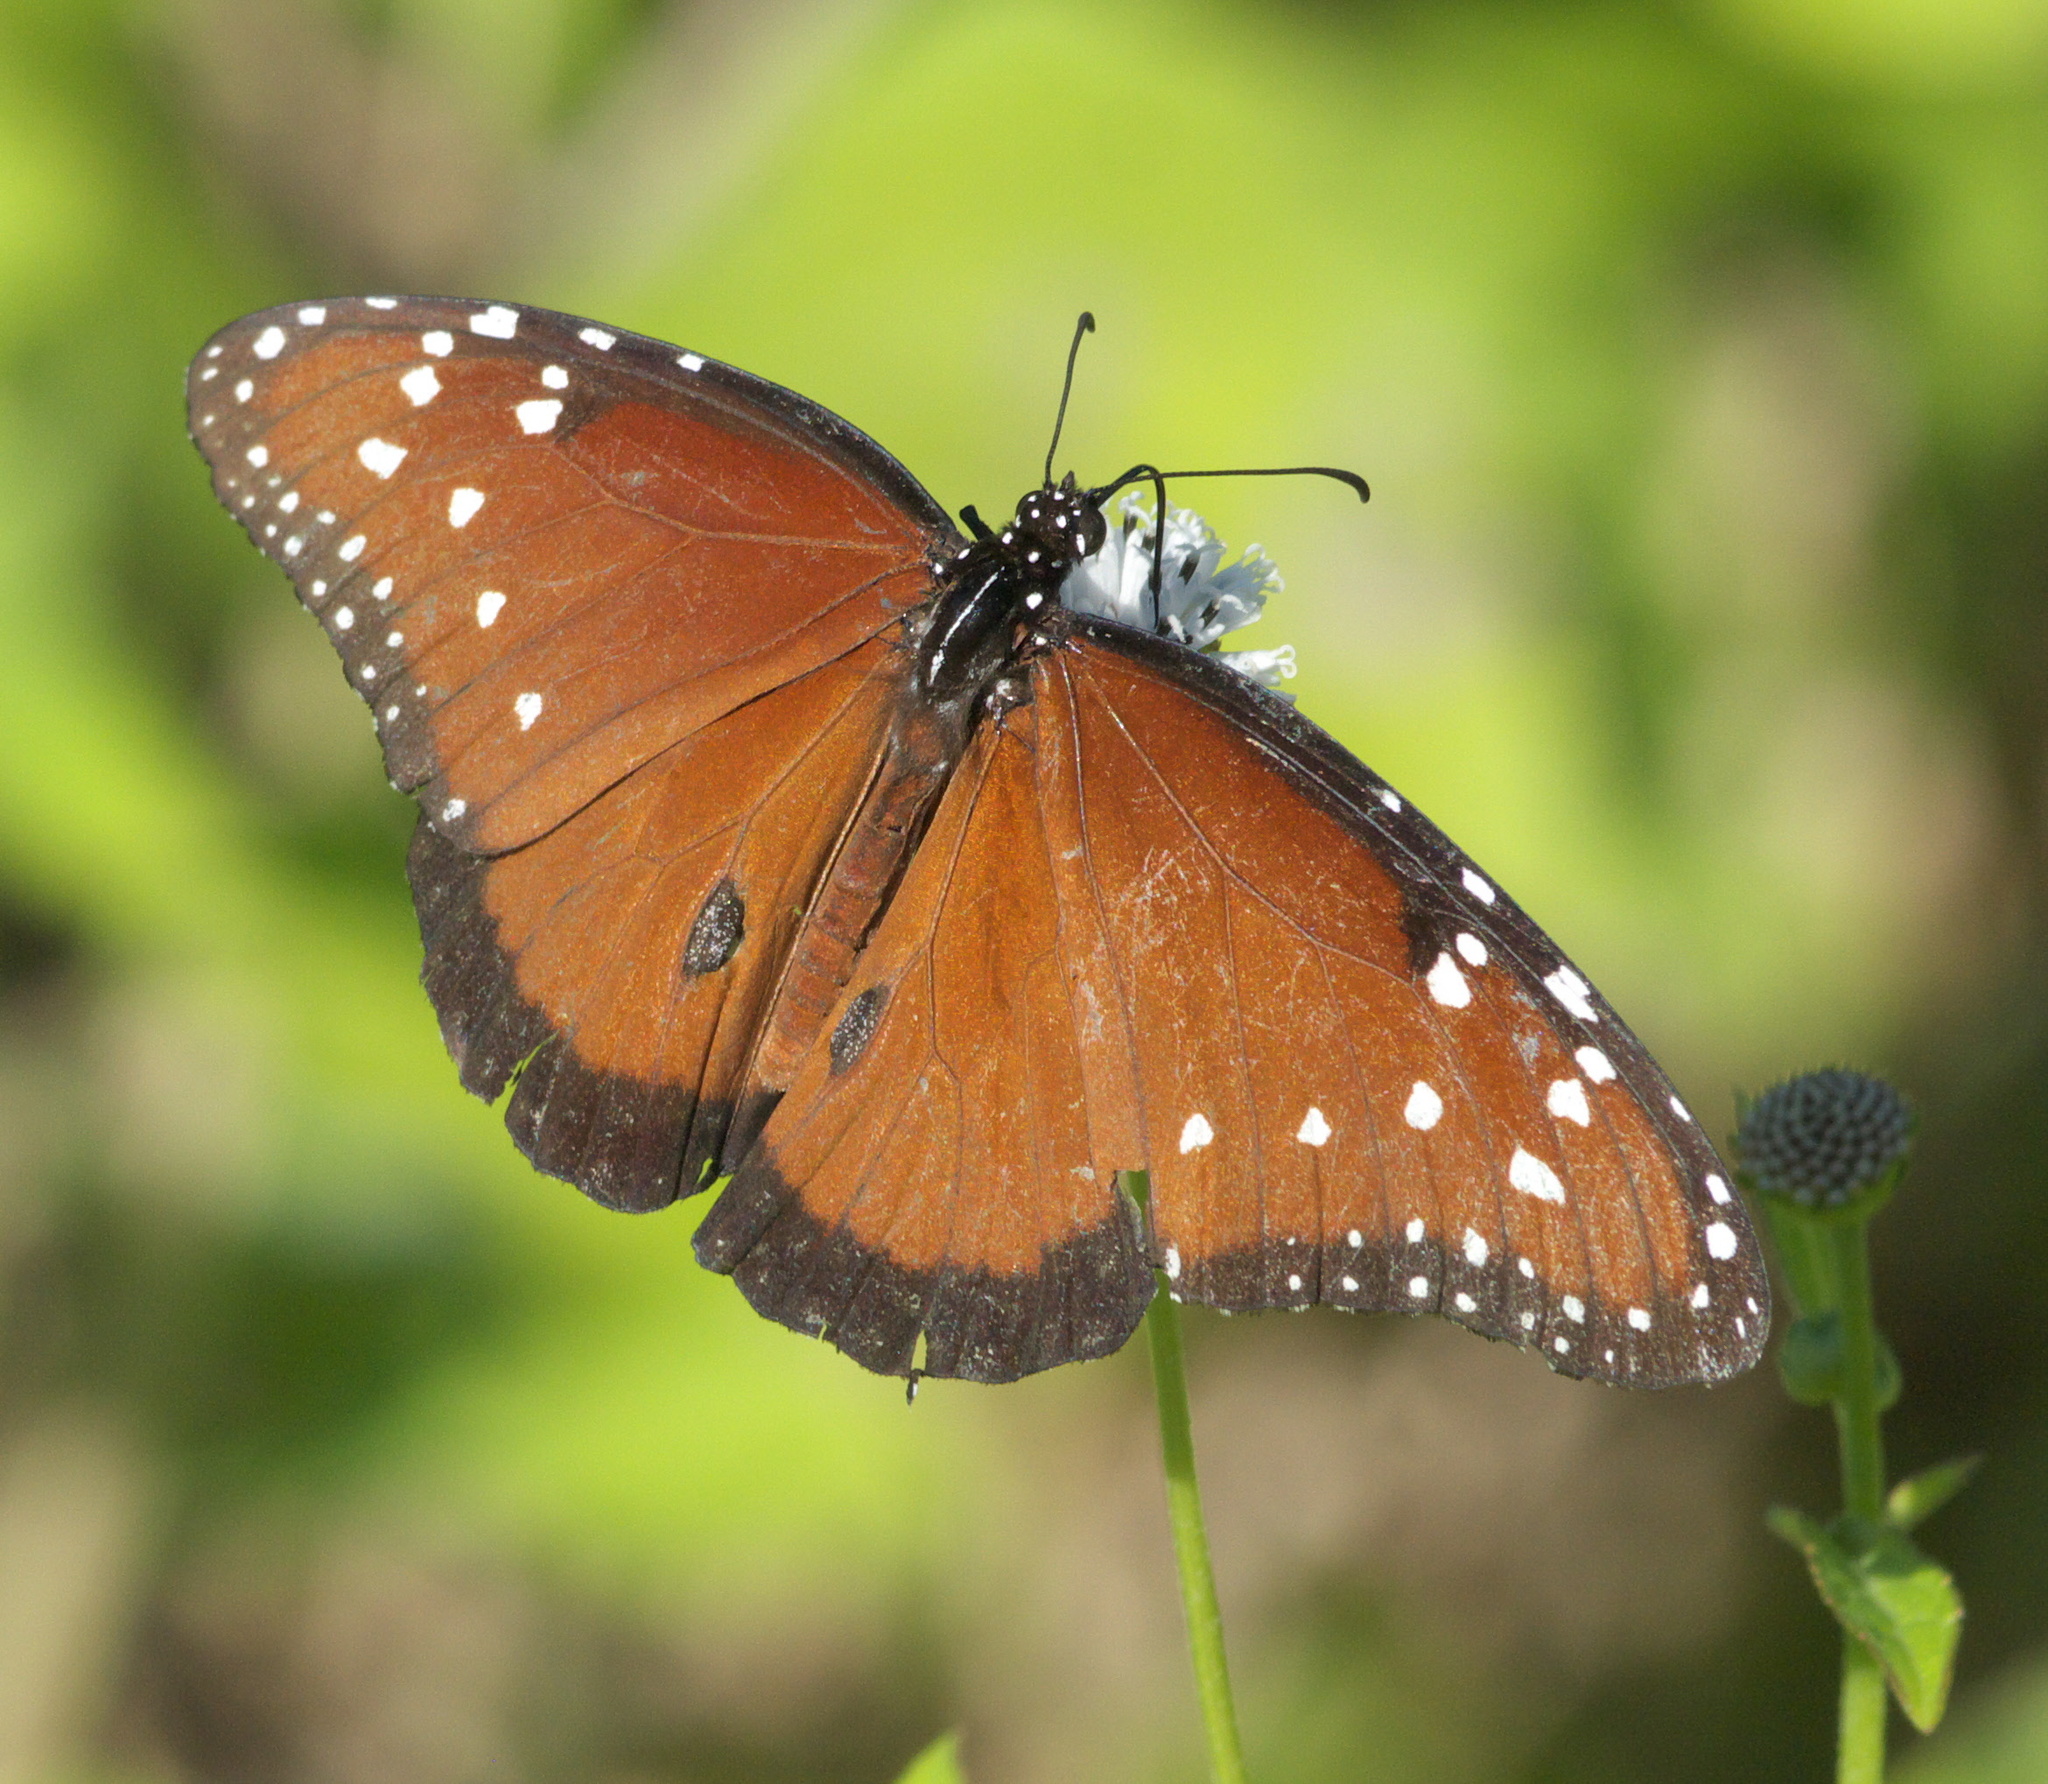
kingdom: Animalia
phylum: Arthropoda
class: Insecta
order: Lepidoptera
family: Nymphalidae
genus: Danaus
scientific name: Danaus gilippus
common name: Queen
